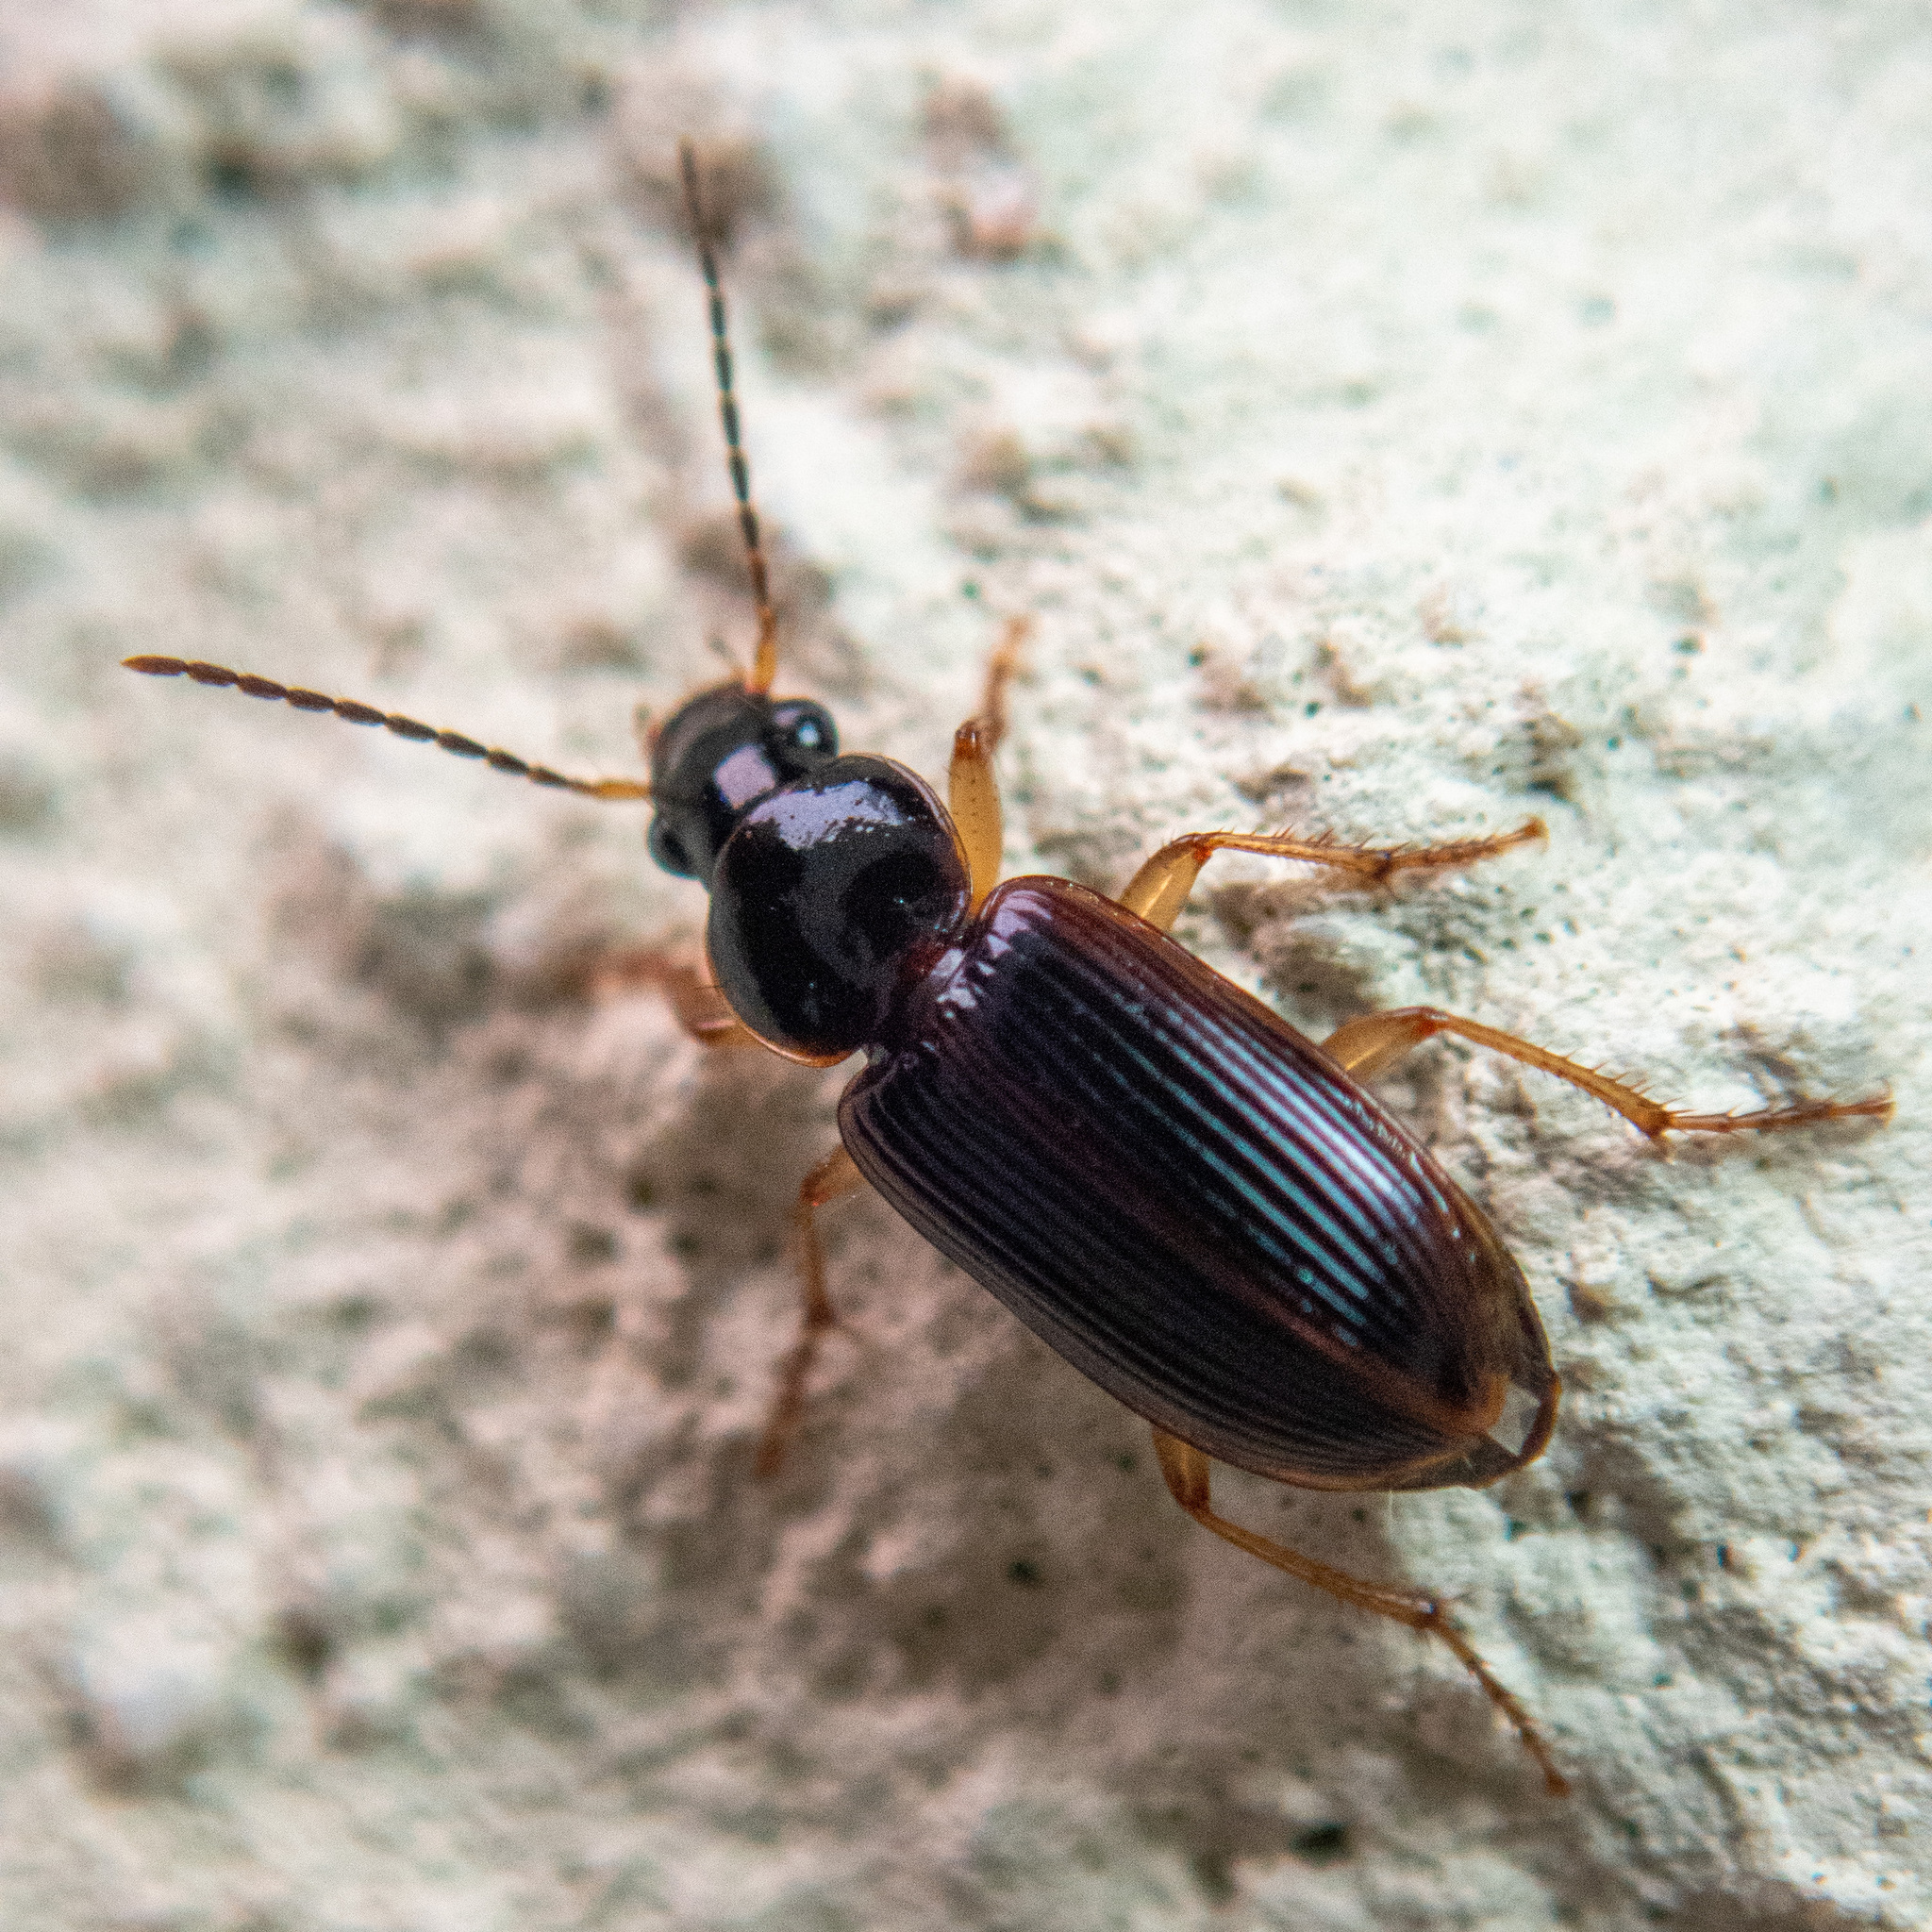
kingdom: Animalia
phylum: Arthropoda
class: Insecta
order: Coleoptera
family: Carabidae
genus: Stenolophus
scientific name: Stenolophus ochropezus
